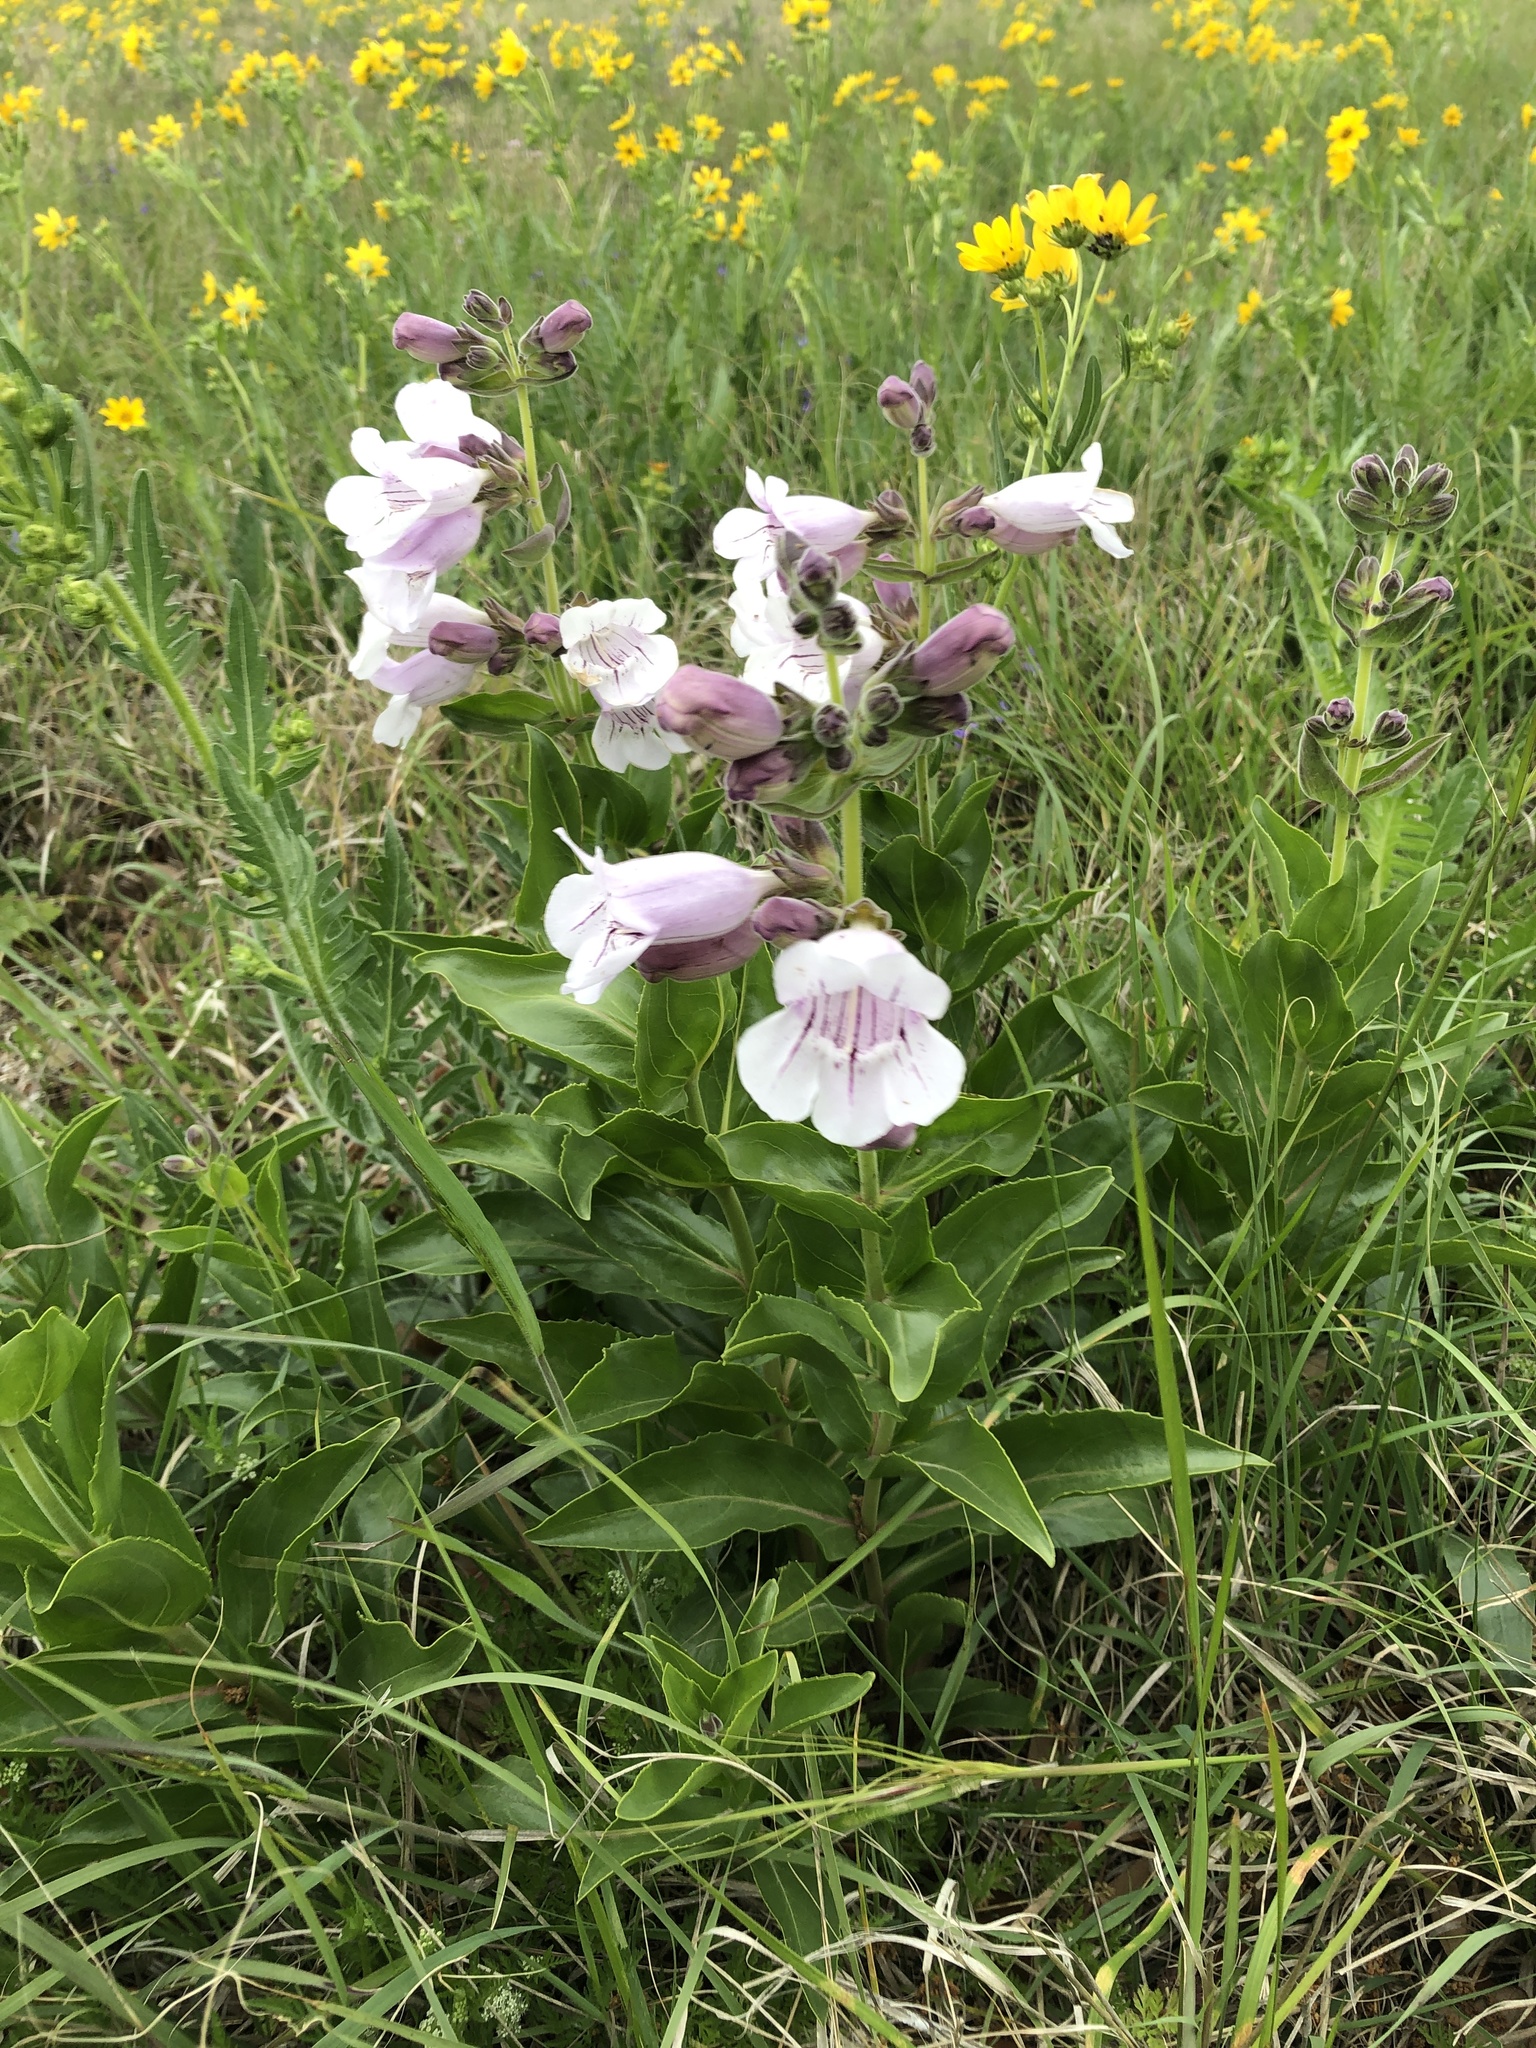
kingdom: Plantae
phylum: Tracheophyta
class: Magnoliopsida
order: Lamiales
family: Plantaginaceae
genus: Penstemon
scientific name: Penstemon cobaea
